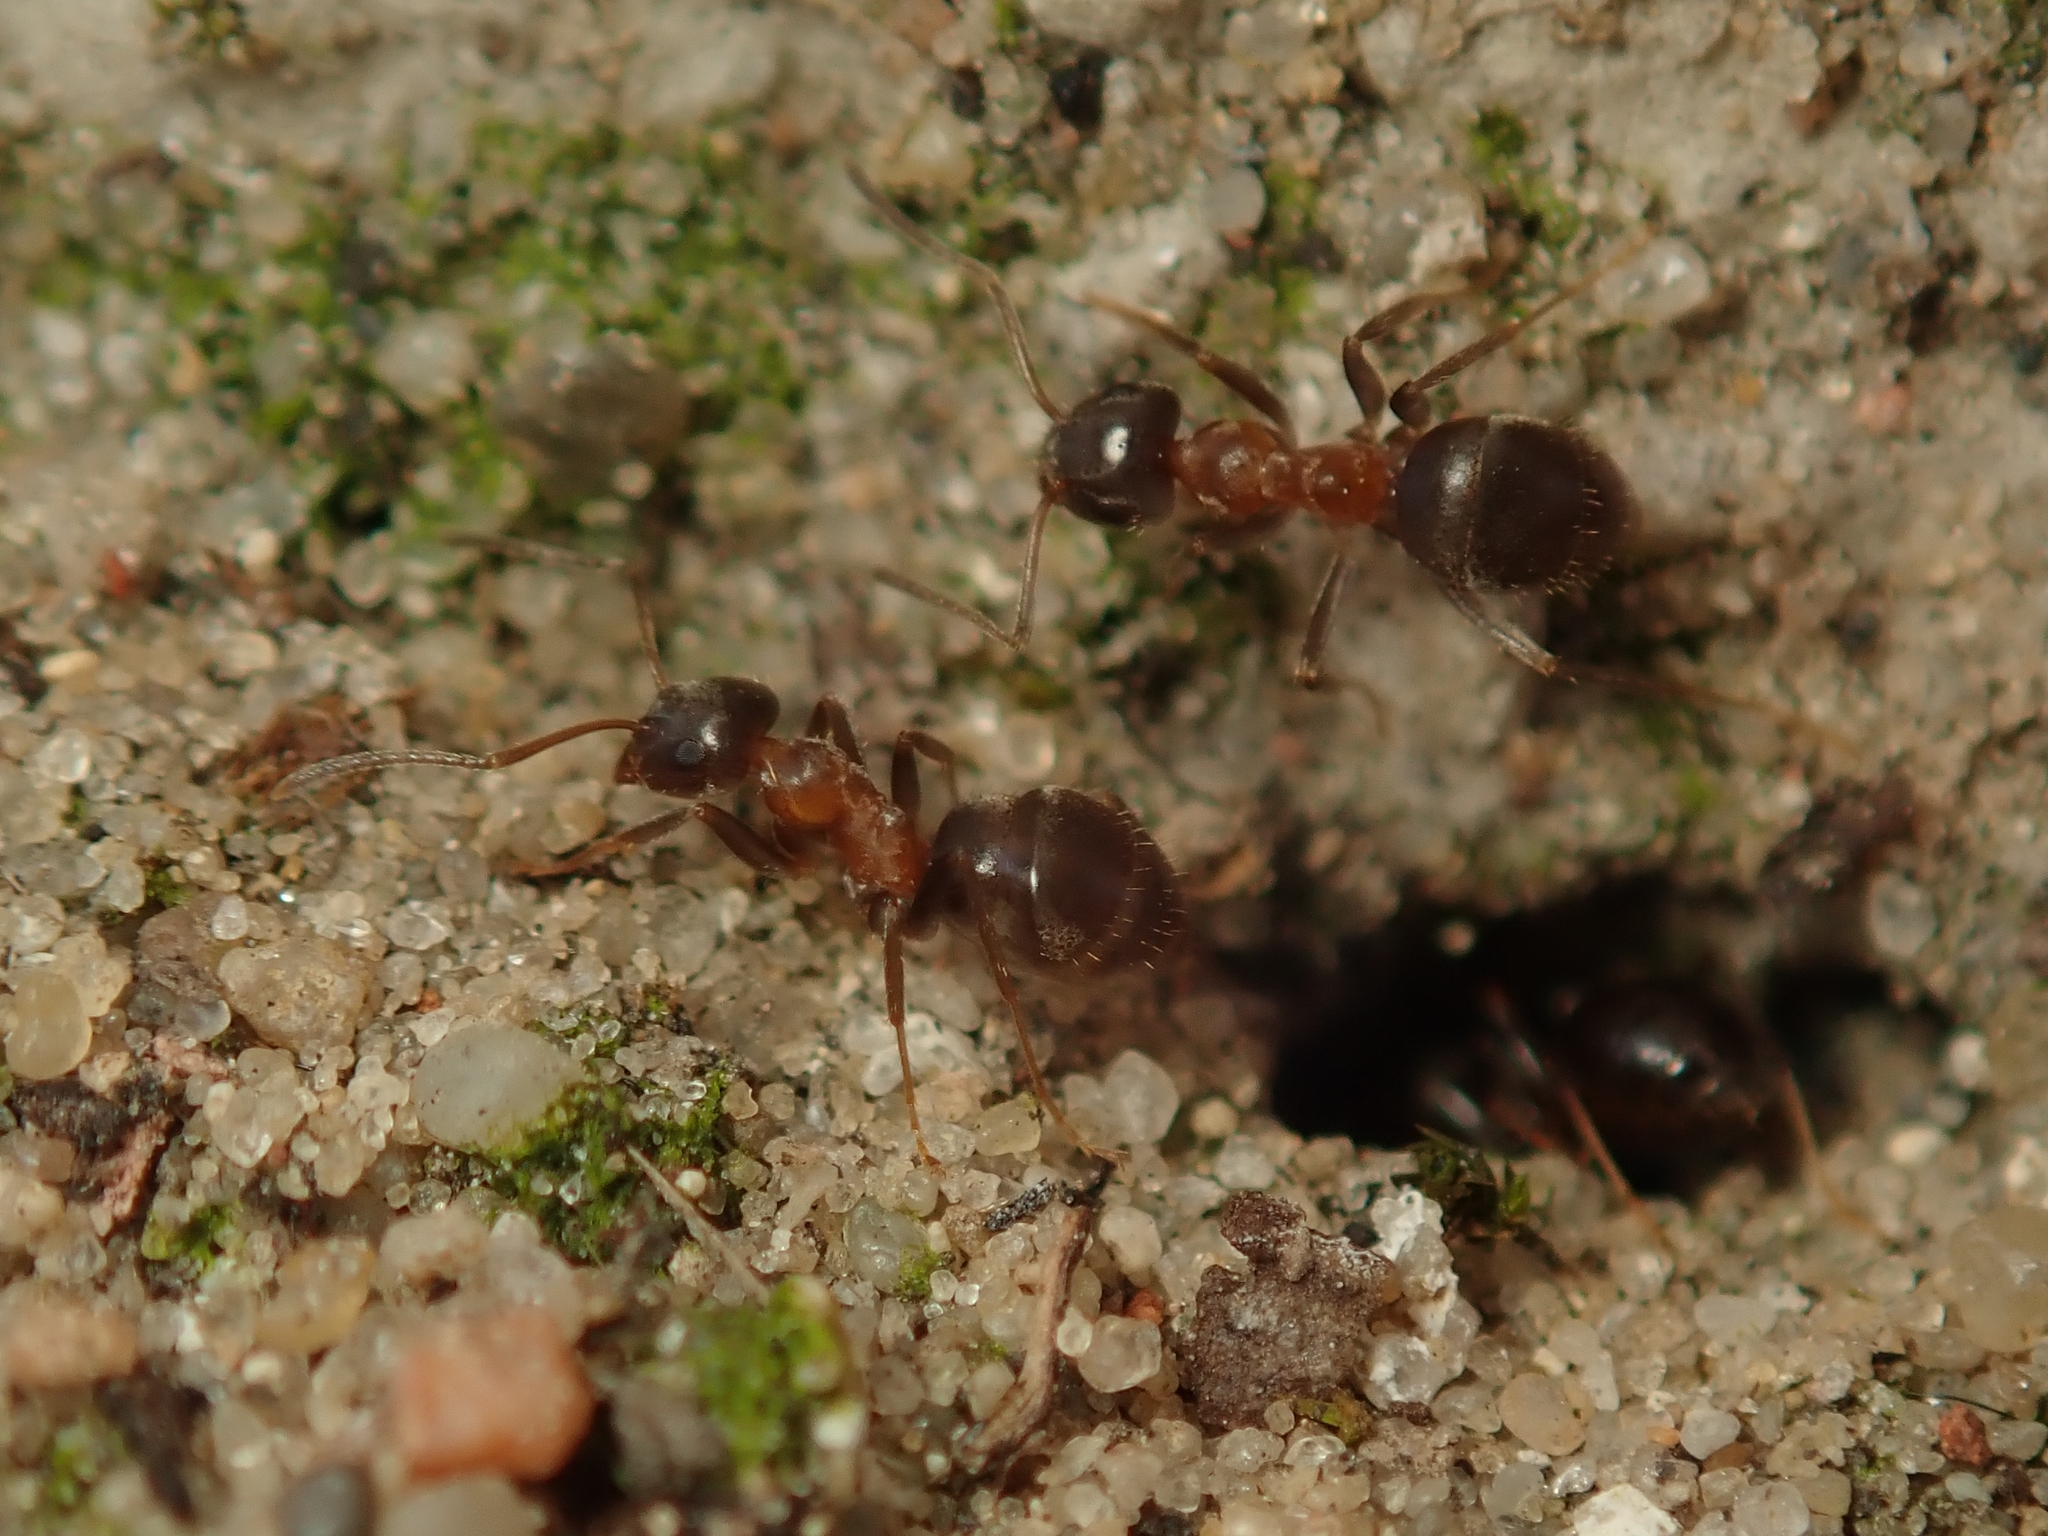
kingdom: Animalia
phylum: Arthropoda
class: Insecta
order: Hymenoptera
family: Formicidae
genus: Lasius
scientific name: Lasius emarginatus
